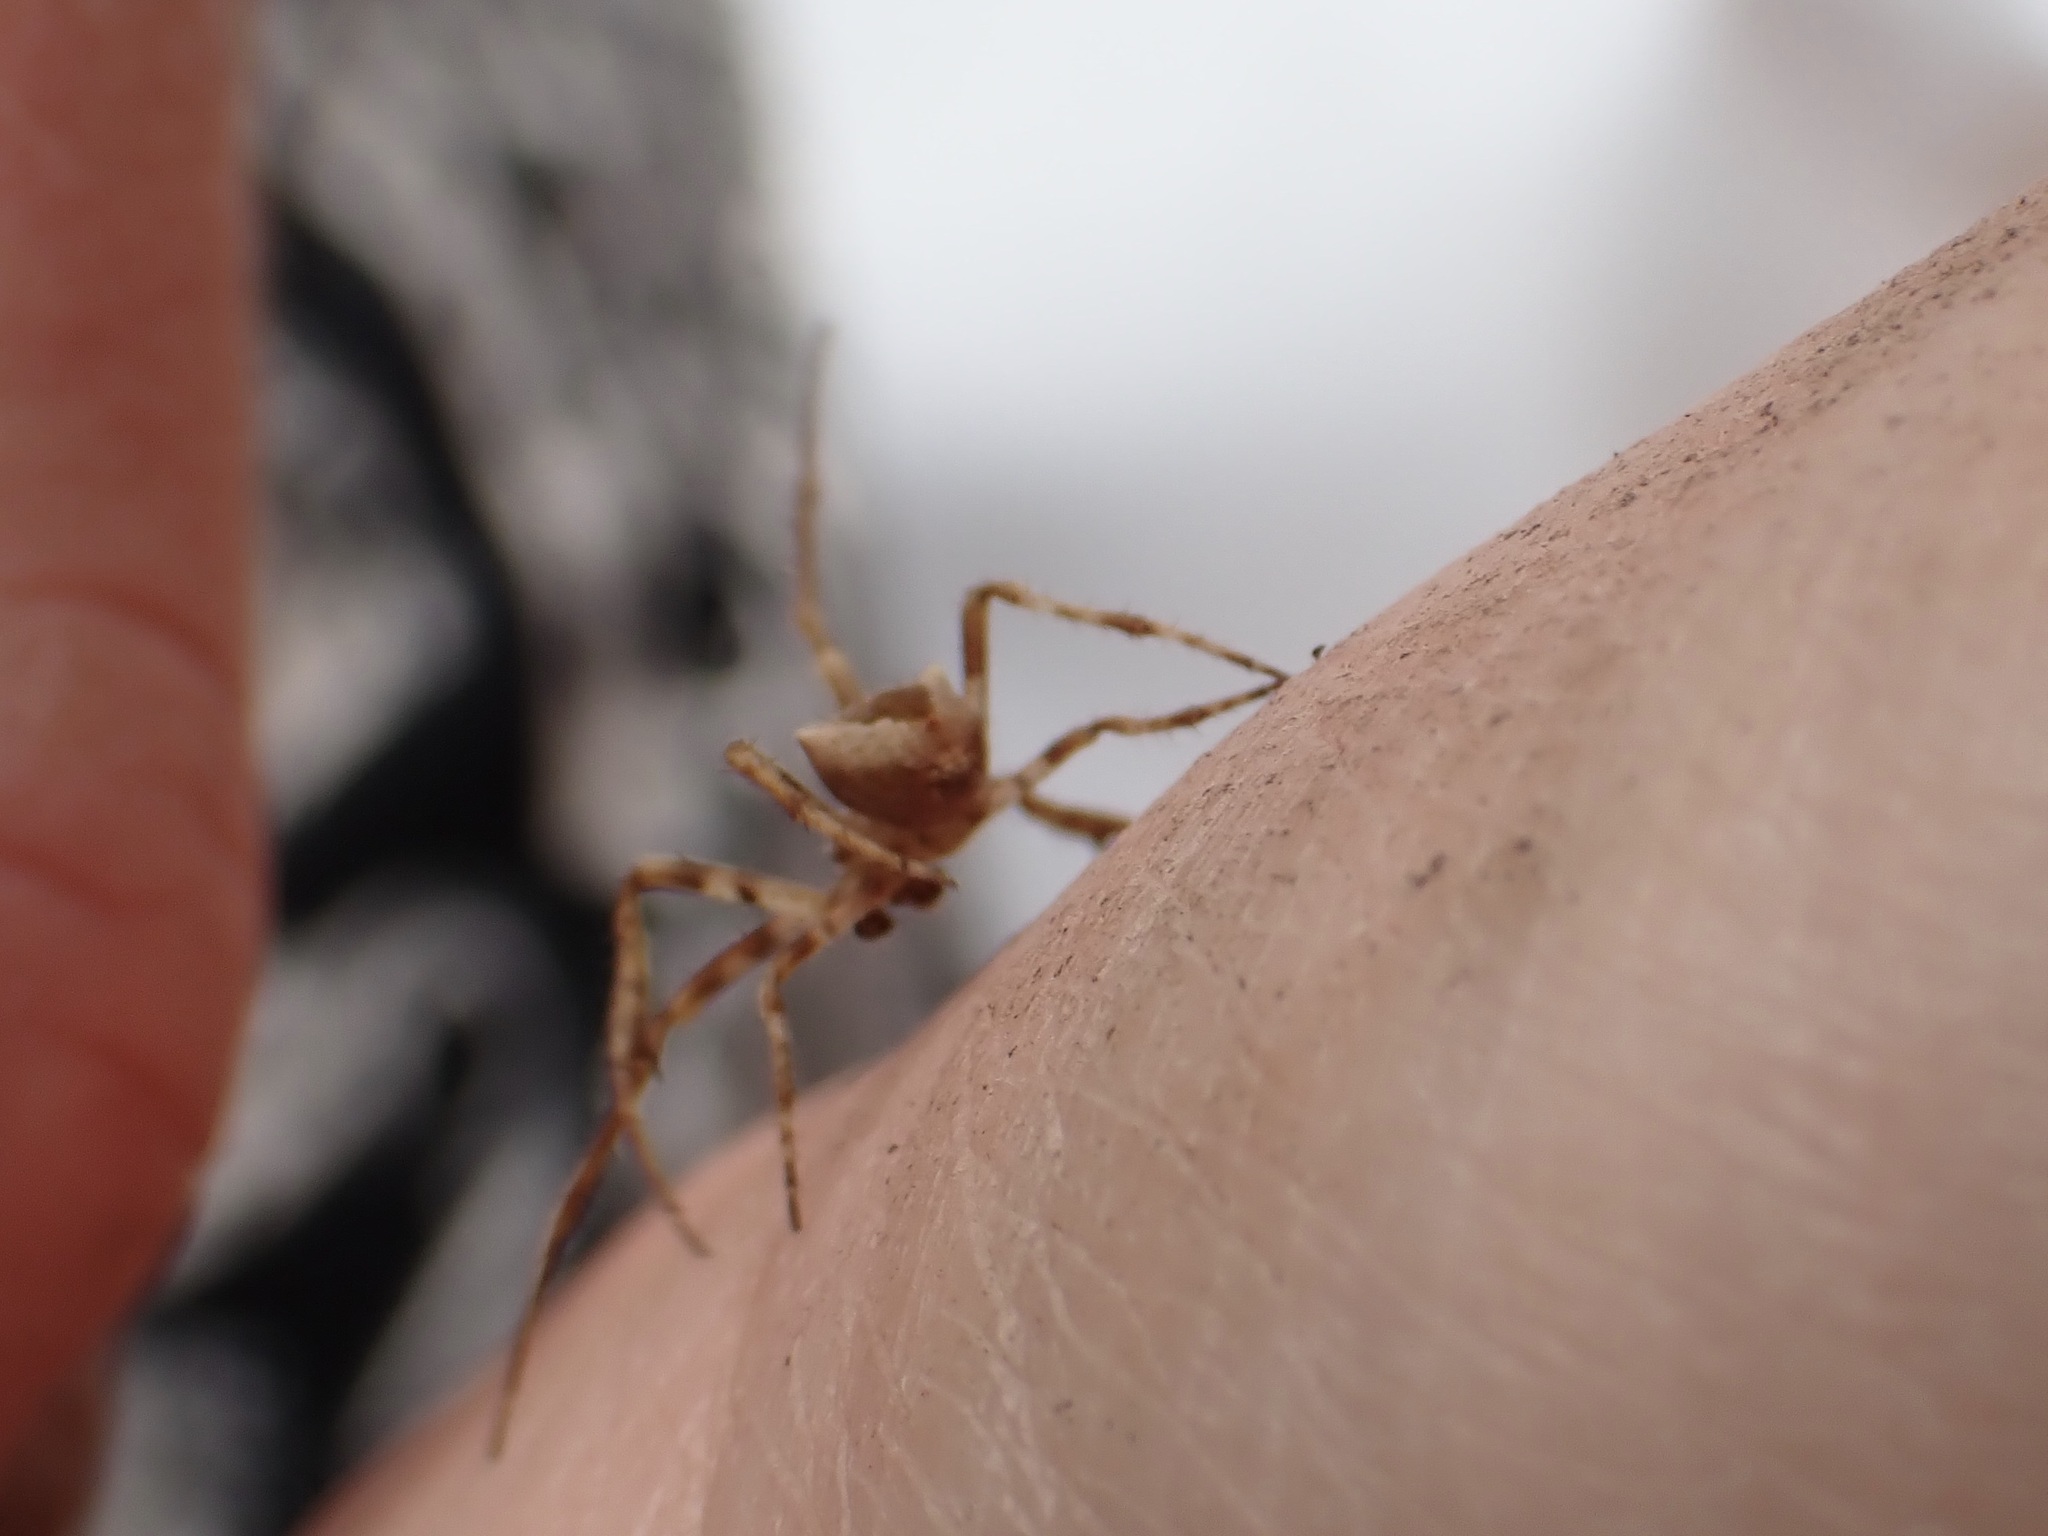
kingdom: Animalia
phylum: Arthropoda
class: Arachnida
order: Araneae
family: Araneidae
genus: Novakiella
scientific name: Novakiella trituberculosa
